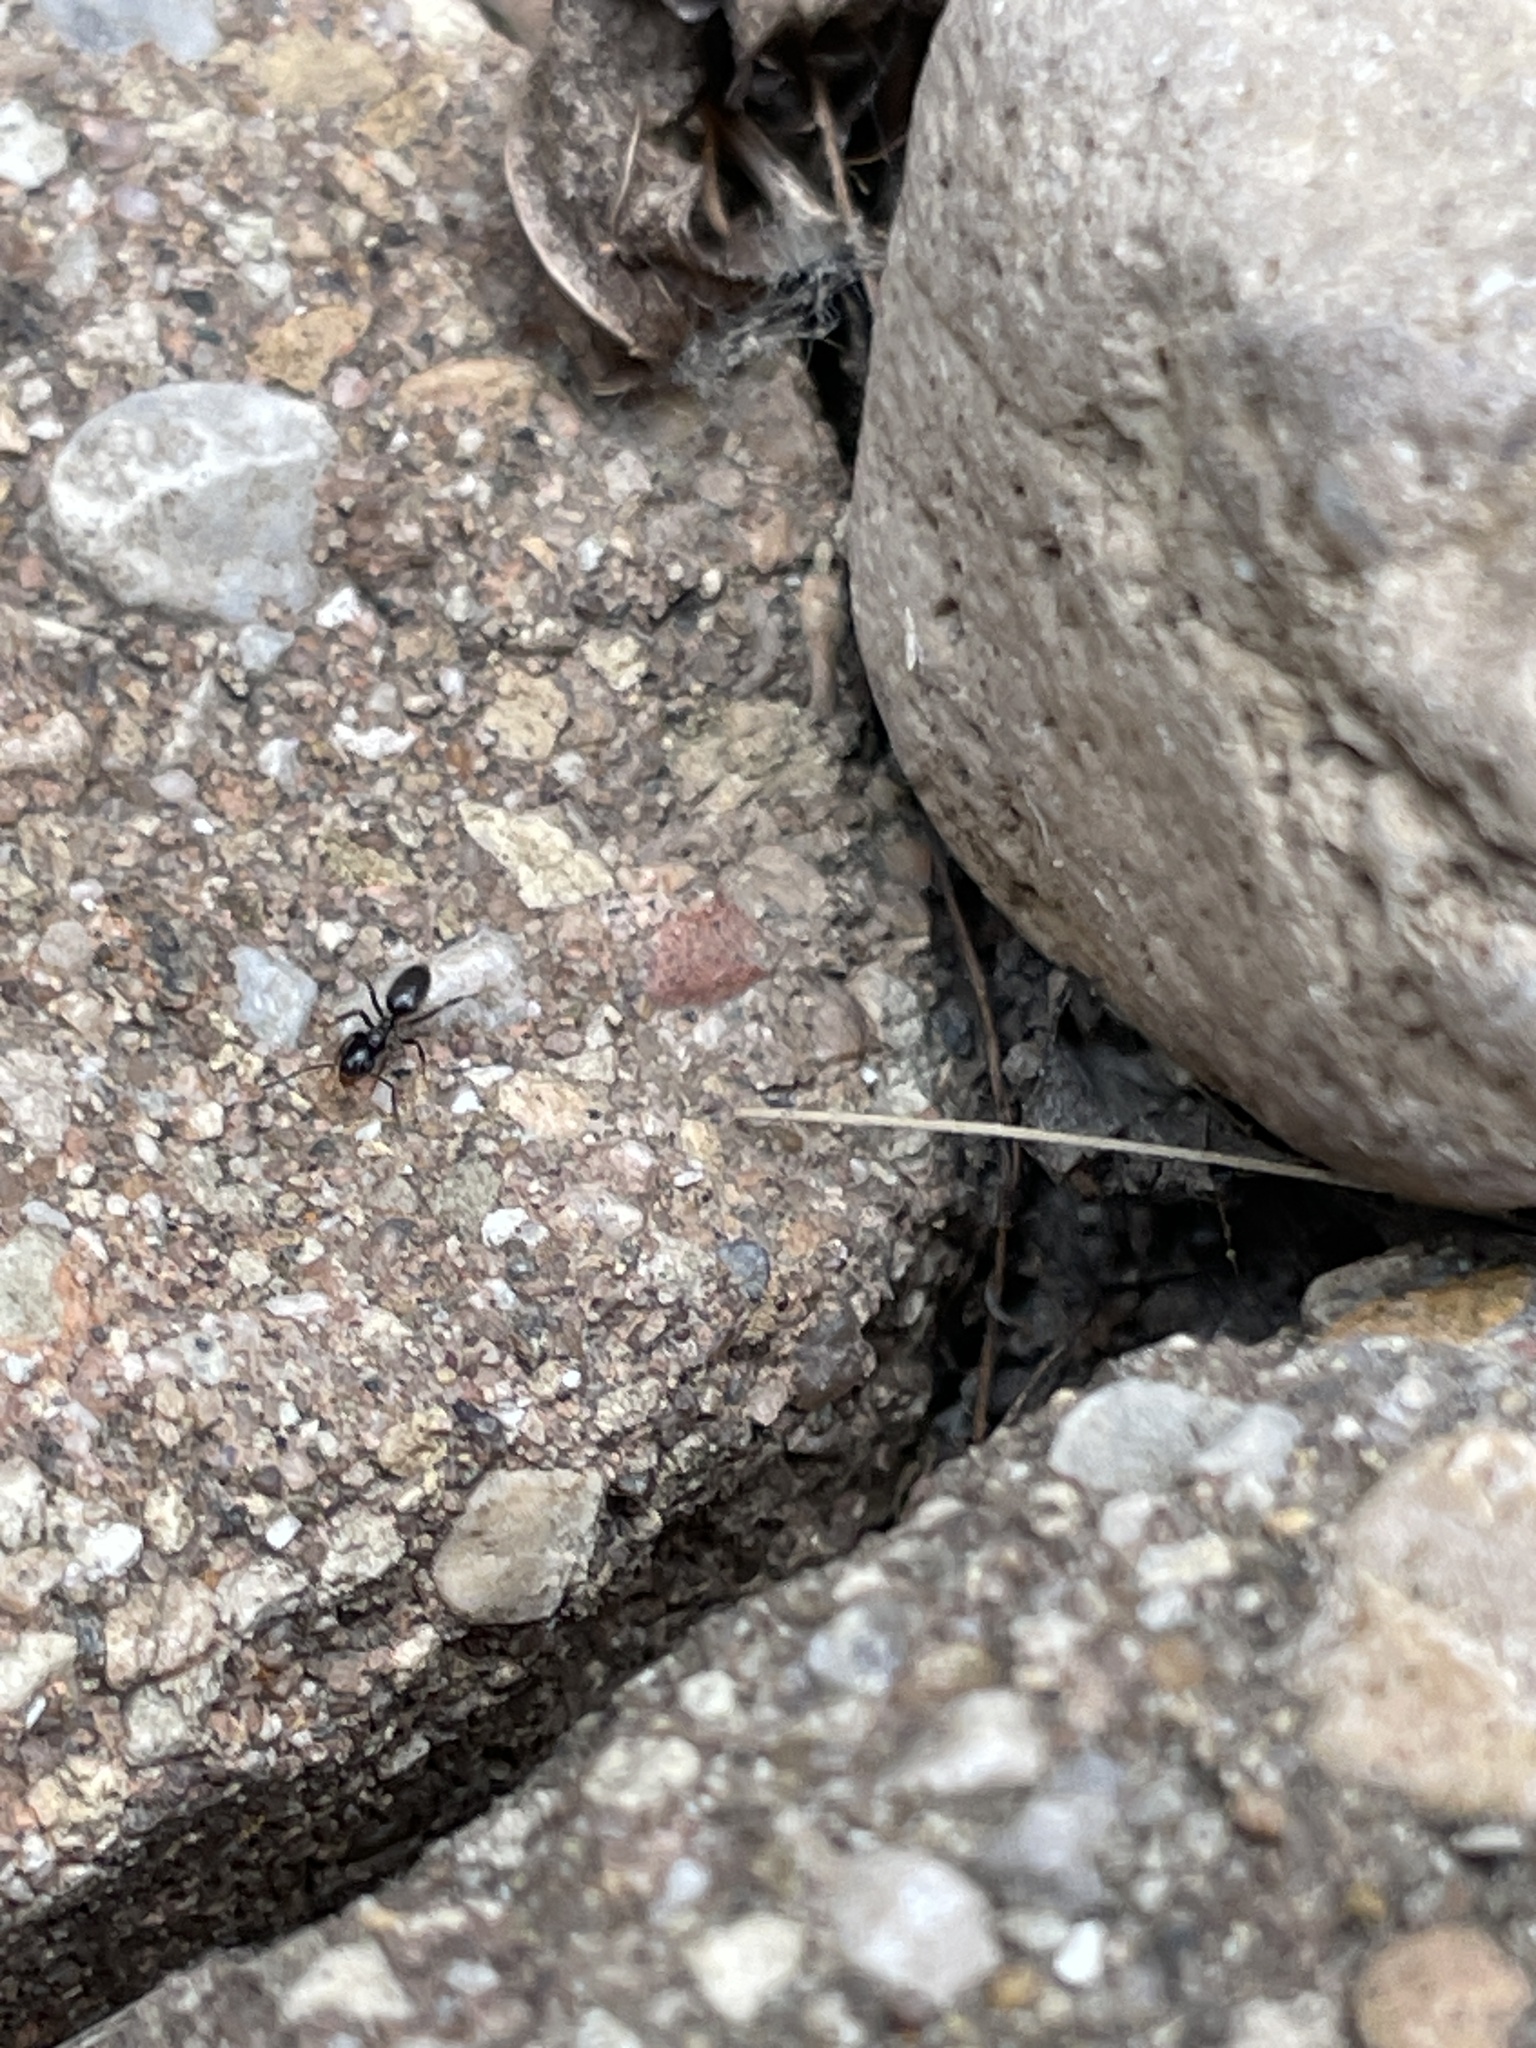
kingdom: Animalia
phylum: Arthropoda
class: Insecta
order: Hymenoptera
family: Formicidae
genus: Tapinoma
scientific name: Tapinoma sessile
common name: Odorous house ant
